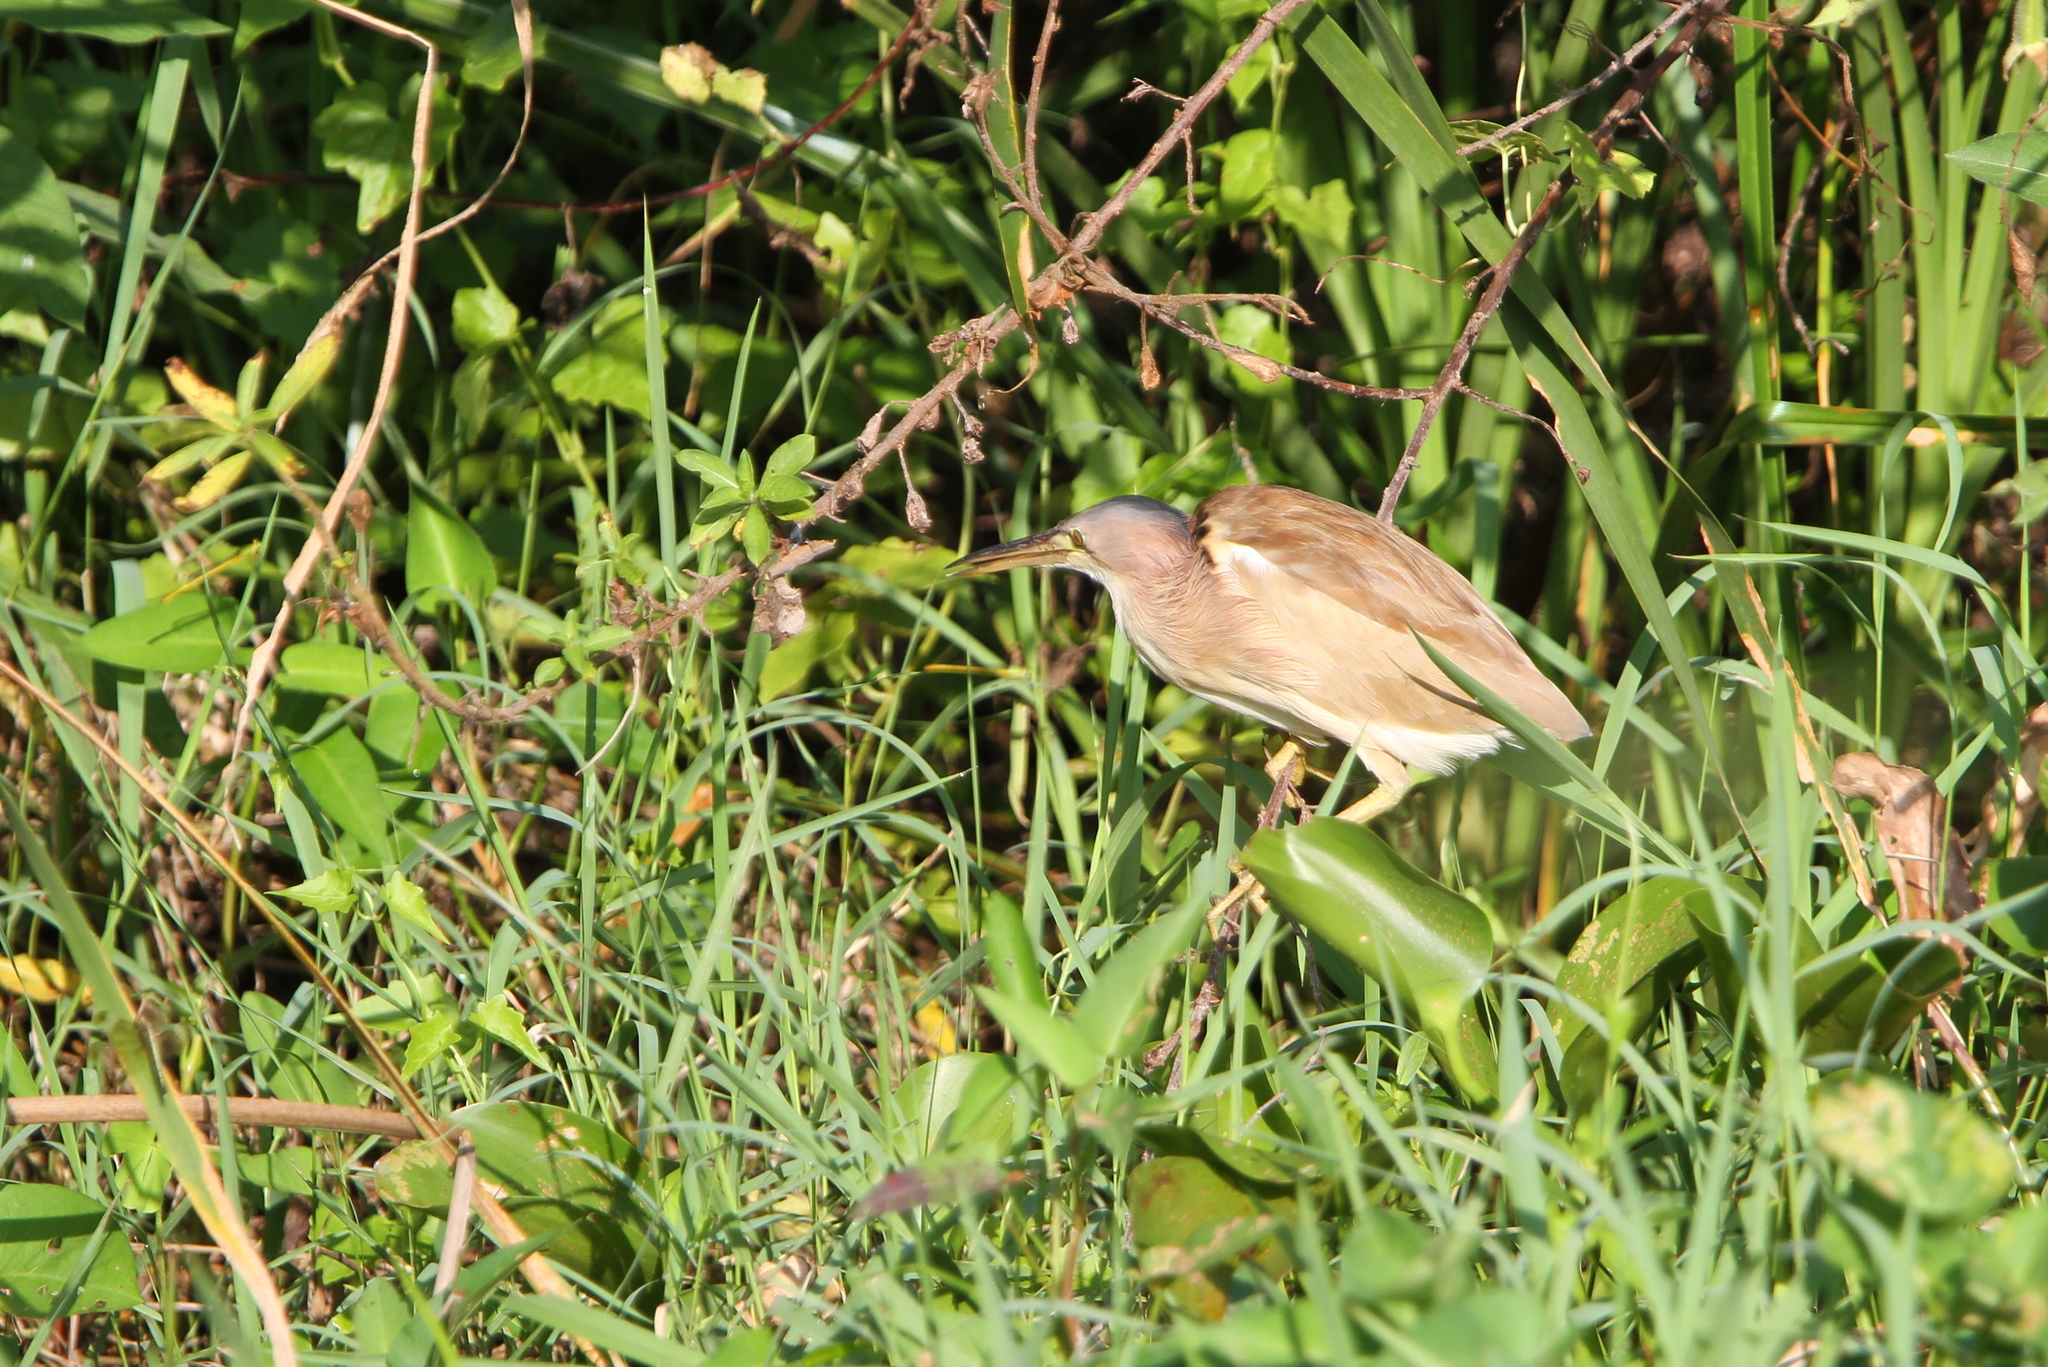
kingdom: Animalia
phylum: Chordata
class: Aves
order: Pelecaniformes
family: Ardeidae
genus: Ixobrychus
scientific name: Ixobrychus sinensis
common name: Yellow bittern
